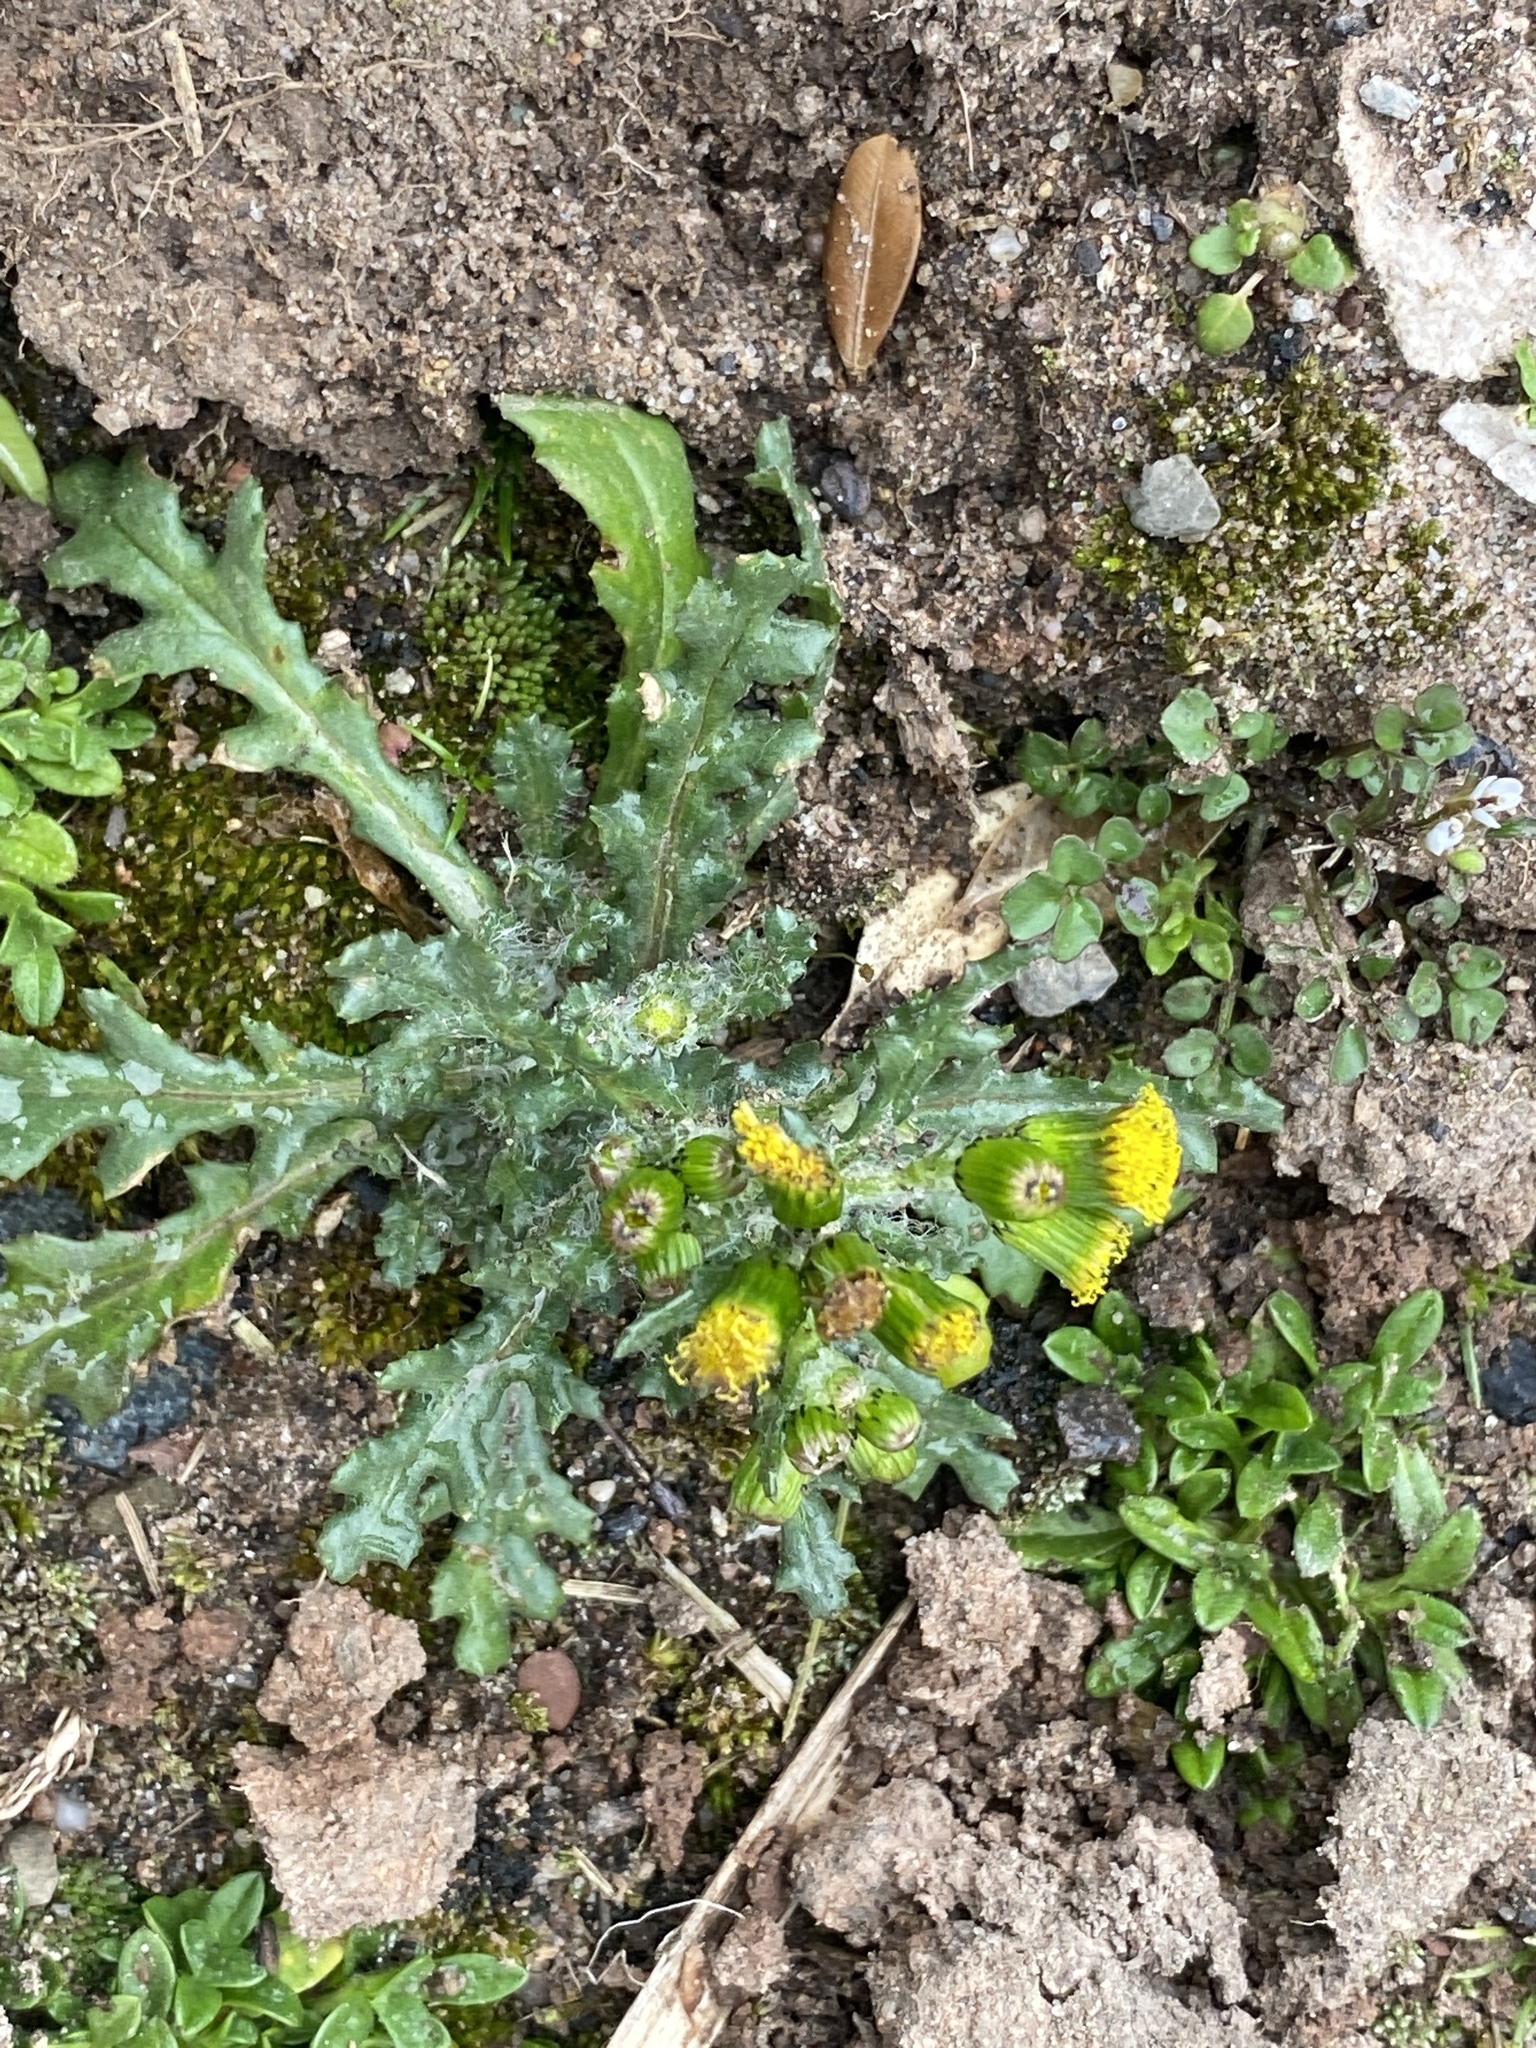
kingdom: Plantae
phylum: Tracheophyta
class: Magnoliopsida
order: Asterales
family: Asteraceae
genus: Senecio
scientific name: Senecio vulgaris
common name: Old-man-in-the-spring
